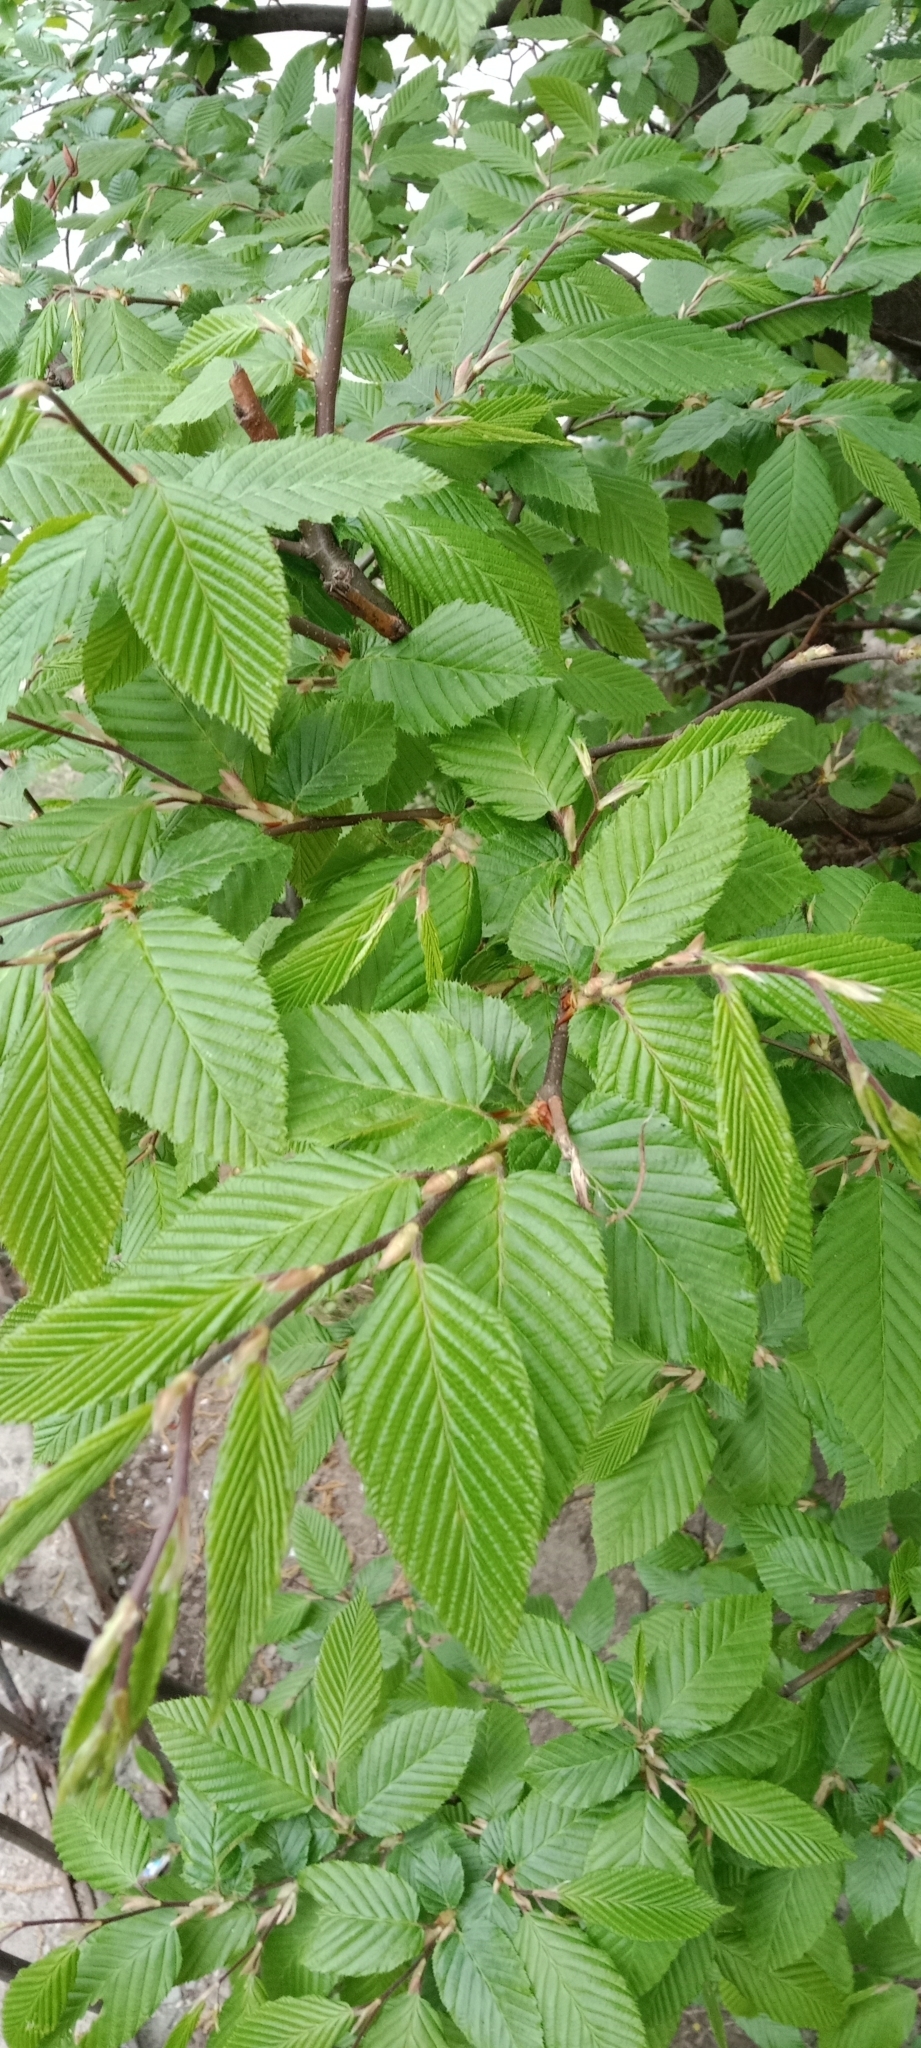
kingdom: Plantae
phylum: Tracheophyta
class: Magnoliopsida
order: Fagales
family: Betulaceae
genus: Carpinus
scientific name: Carpinus betulus
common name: Hornbeam
